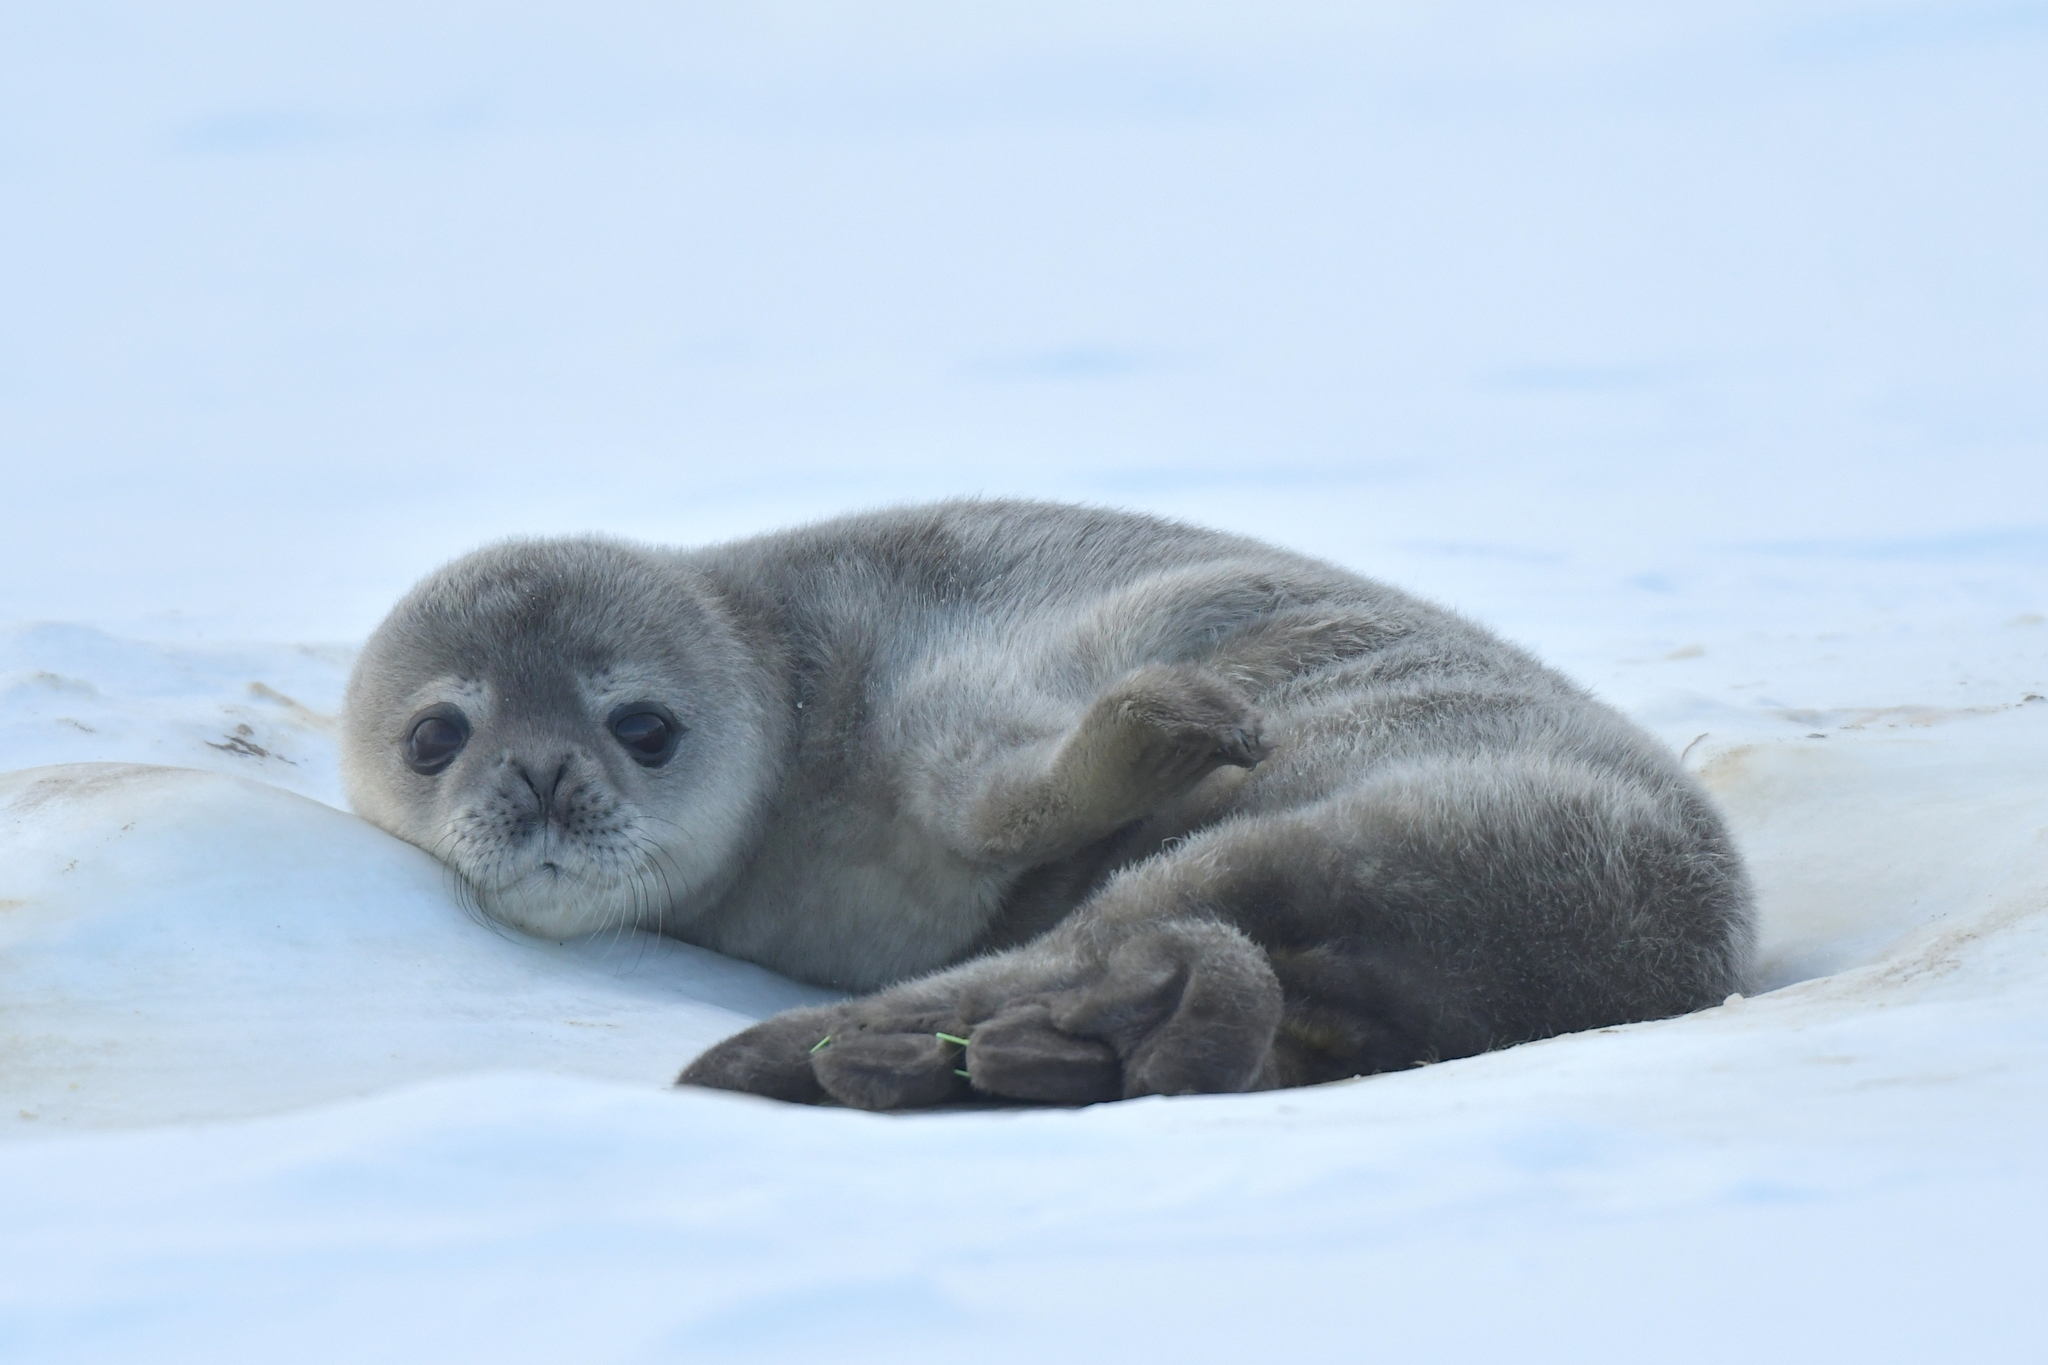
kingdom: Animalia
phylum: Chordata
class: Mammalia
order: Carnivora
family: Phocidae
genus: Leptonychotes
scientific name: Leptonychotes weddellii
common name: Weddell seal
